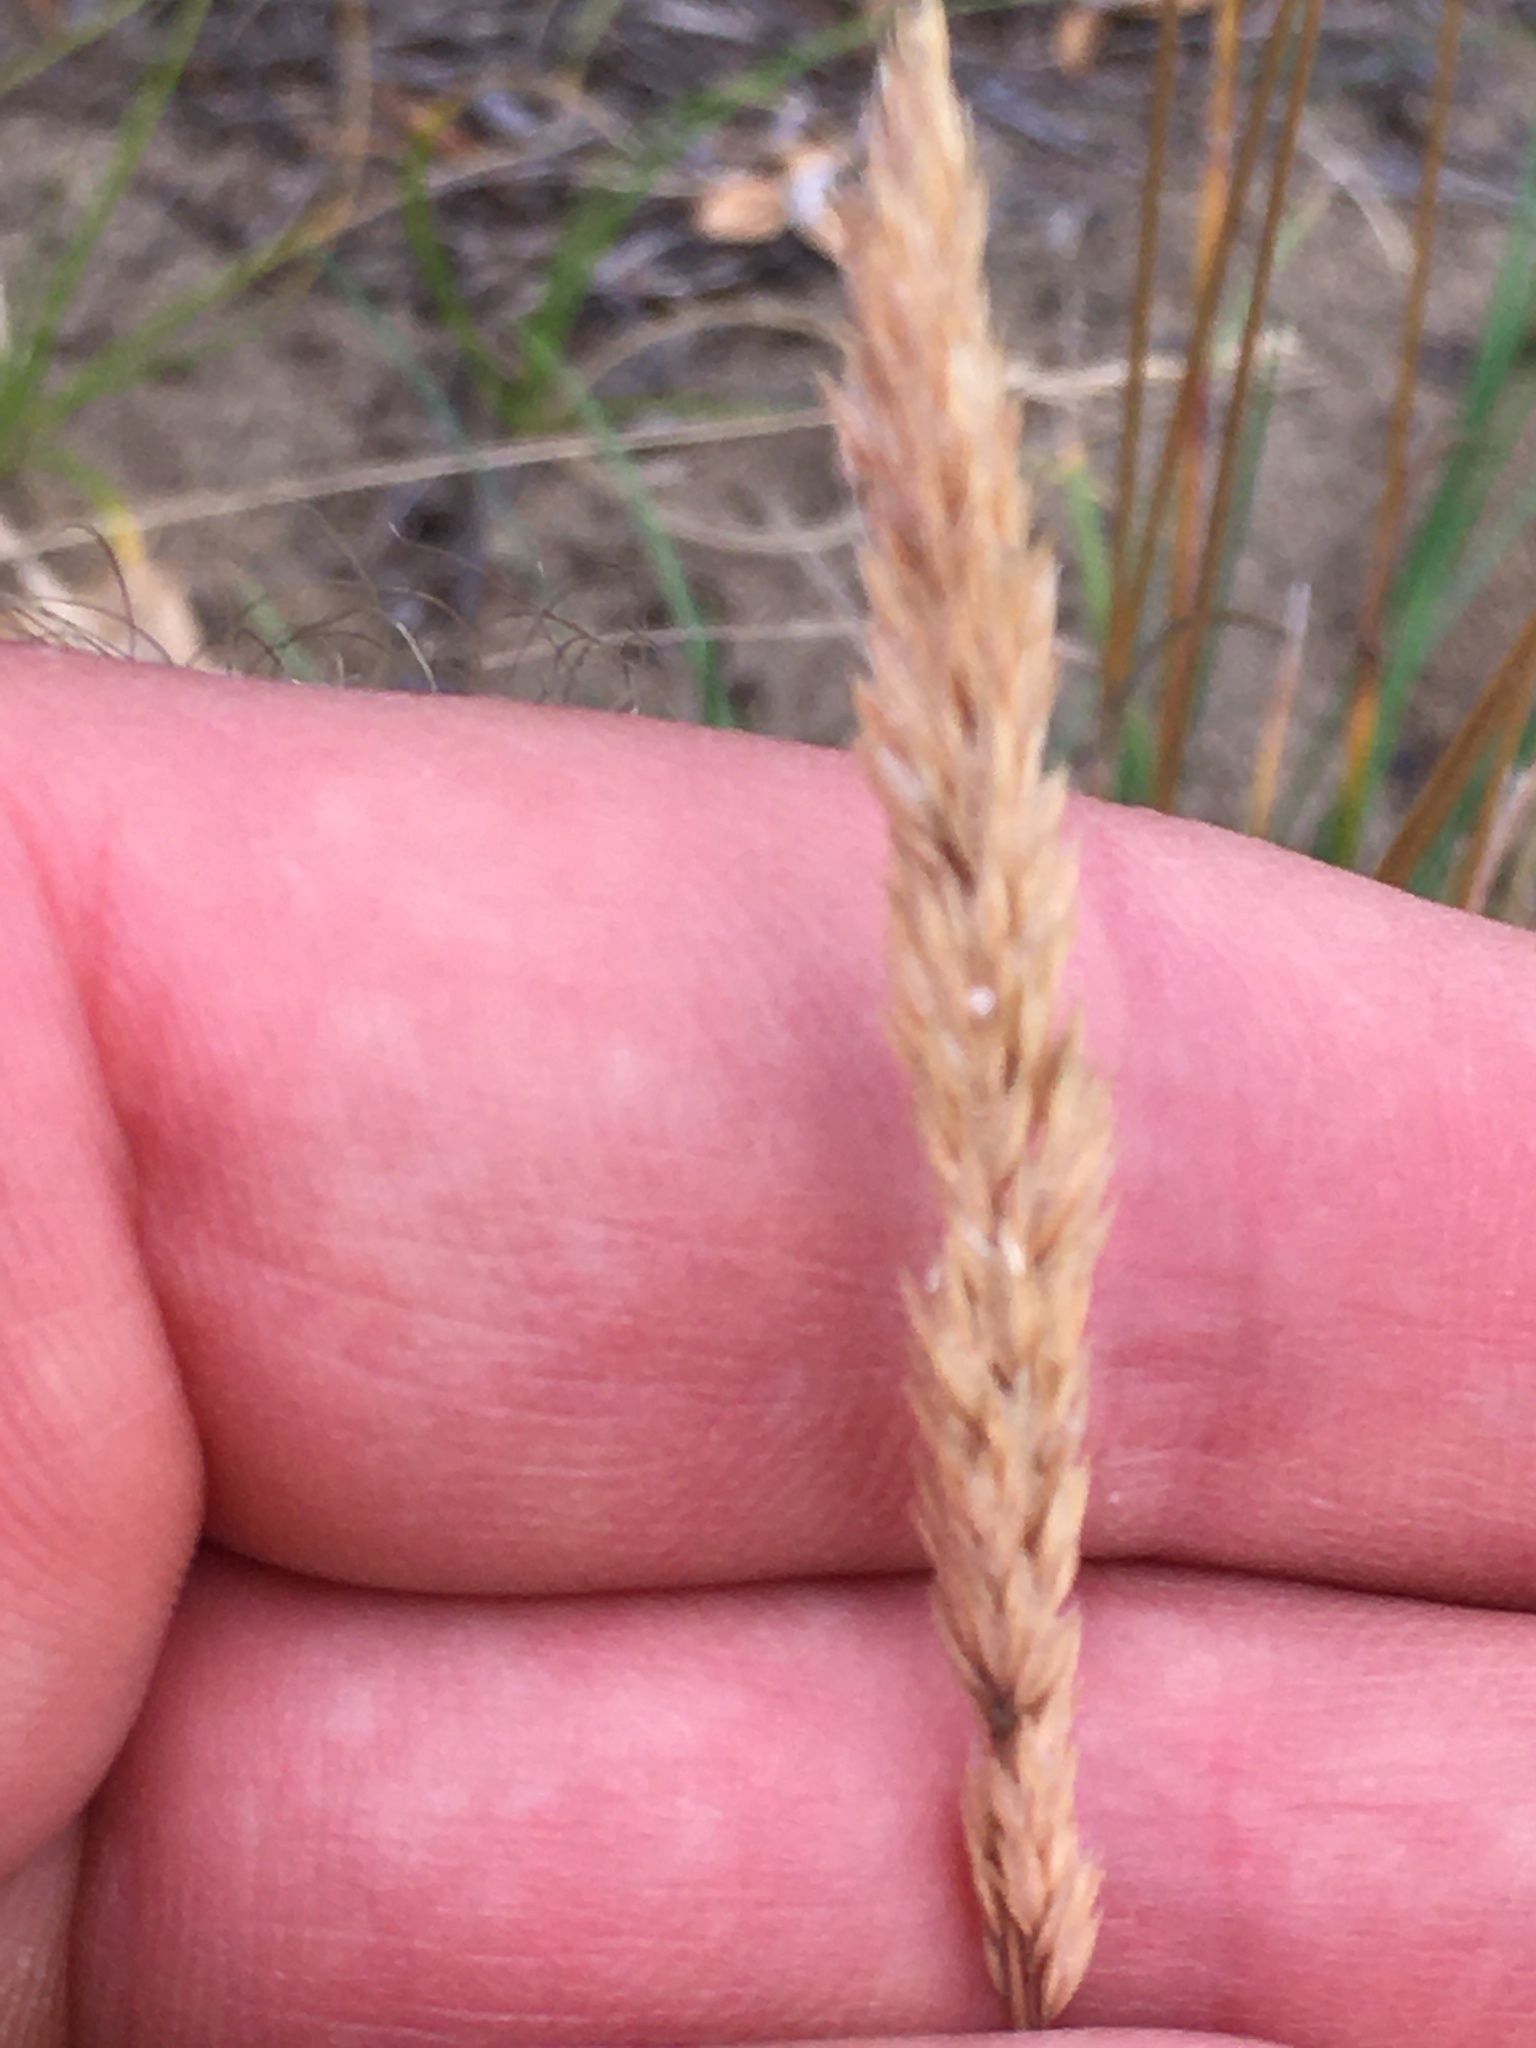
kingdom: Plantae
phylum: Tracheophyta
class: Liliopsida
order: Poales
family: Poaceae
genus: Koeleria
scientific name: Koeleria macrantha
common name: Crested hair-grass
